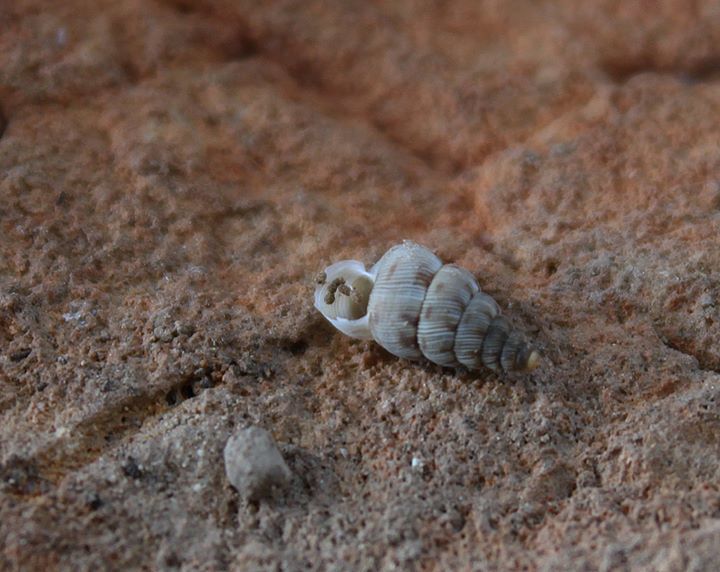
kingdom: Animalia
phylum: Mollusca
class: Gastropoda
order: Architaenioglossa
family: Cochlostomatidae
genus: Cochlostoma
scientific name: Cochlostoma tessellatum
